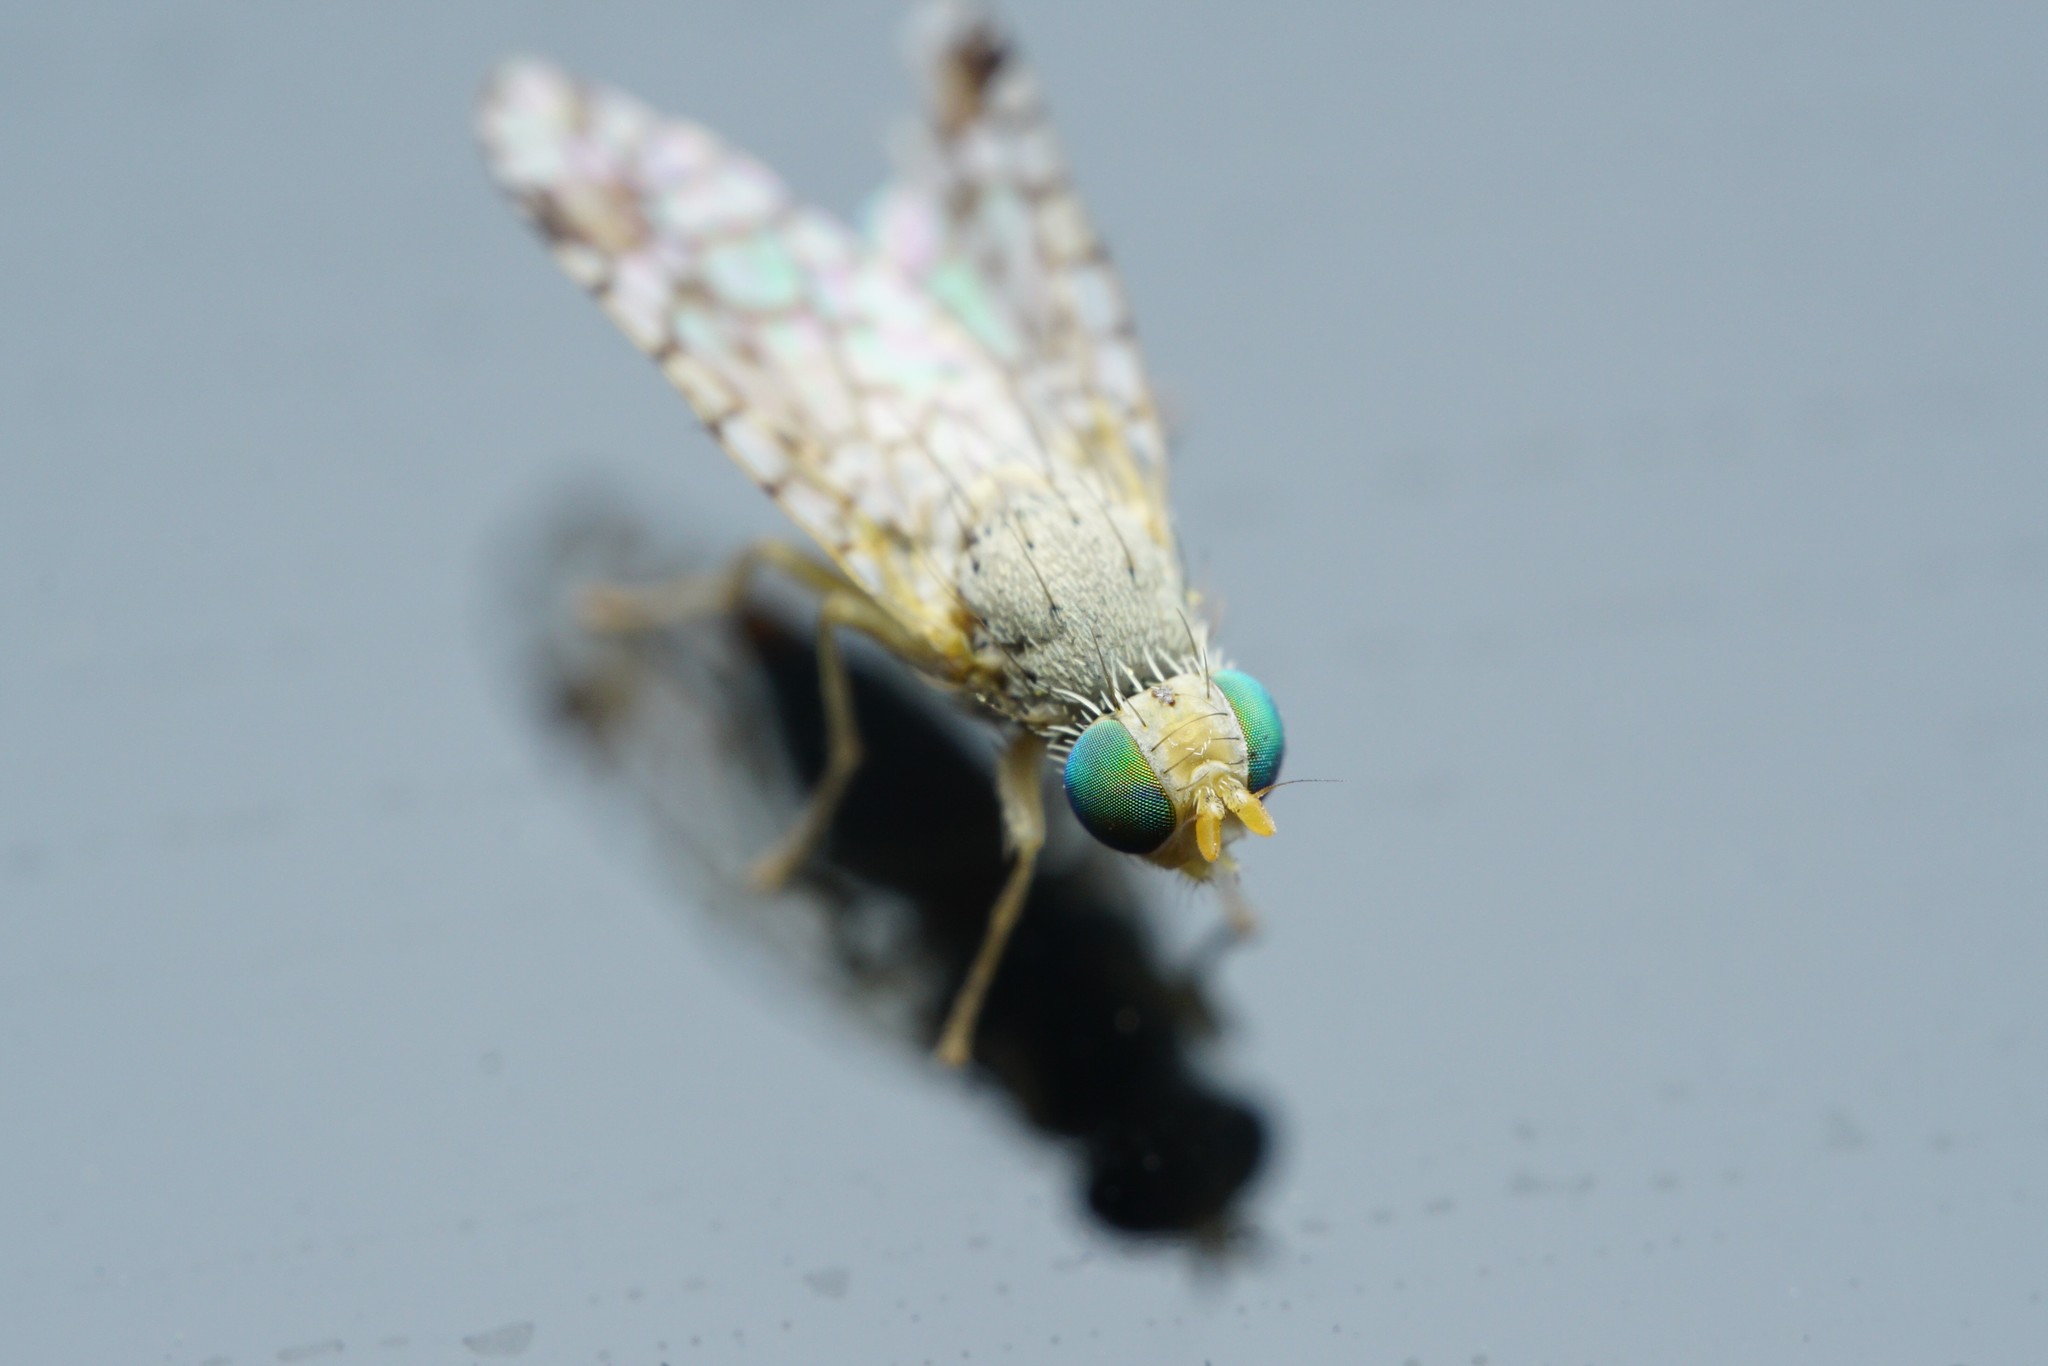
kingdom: Animalia
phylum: Arthropoda
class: Insecta
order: Diptera
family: Tephritidae
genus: Euarestoides
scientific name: Euarestoides acutangulus
